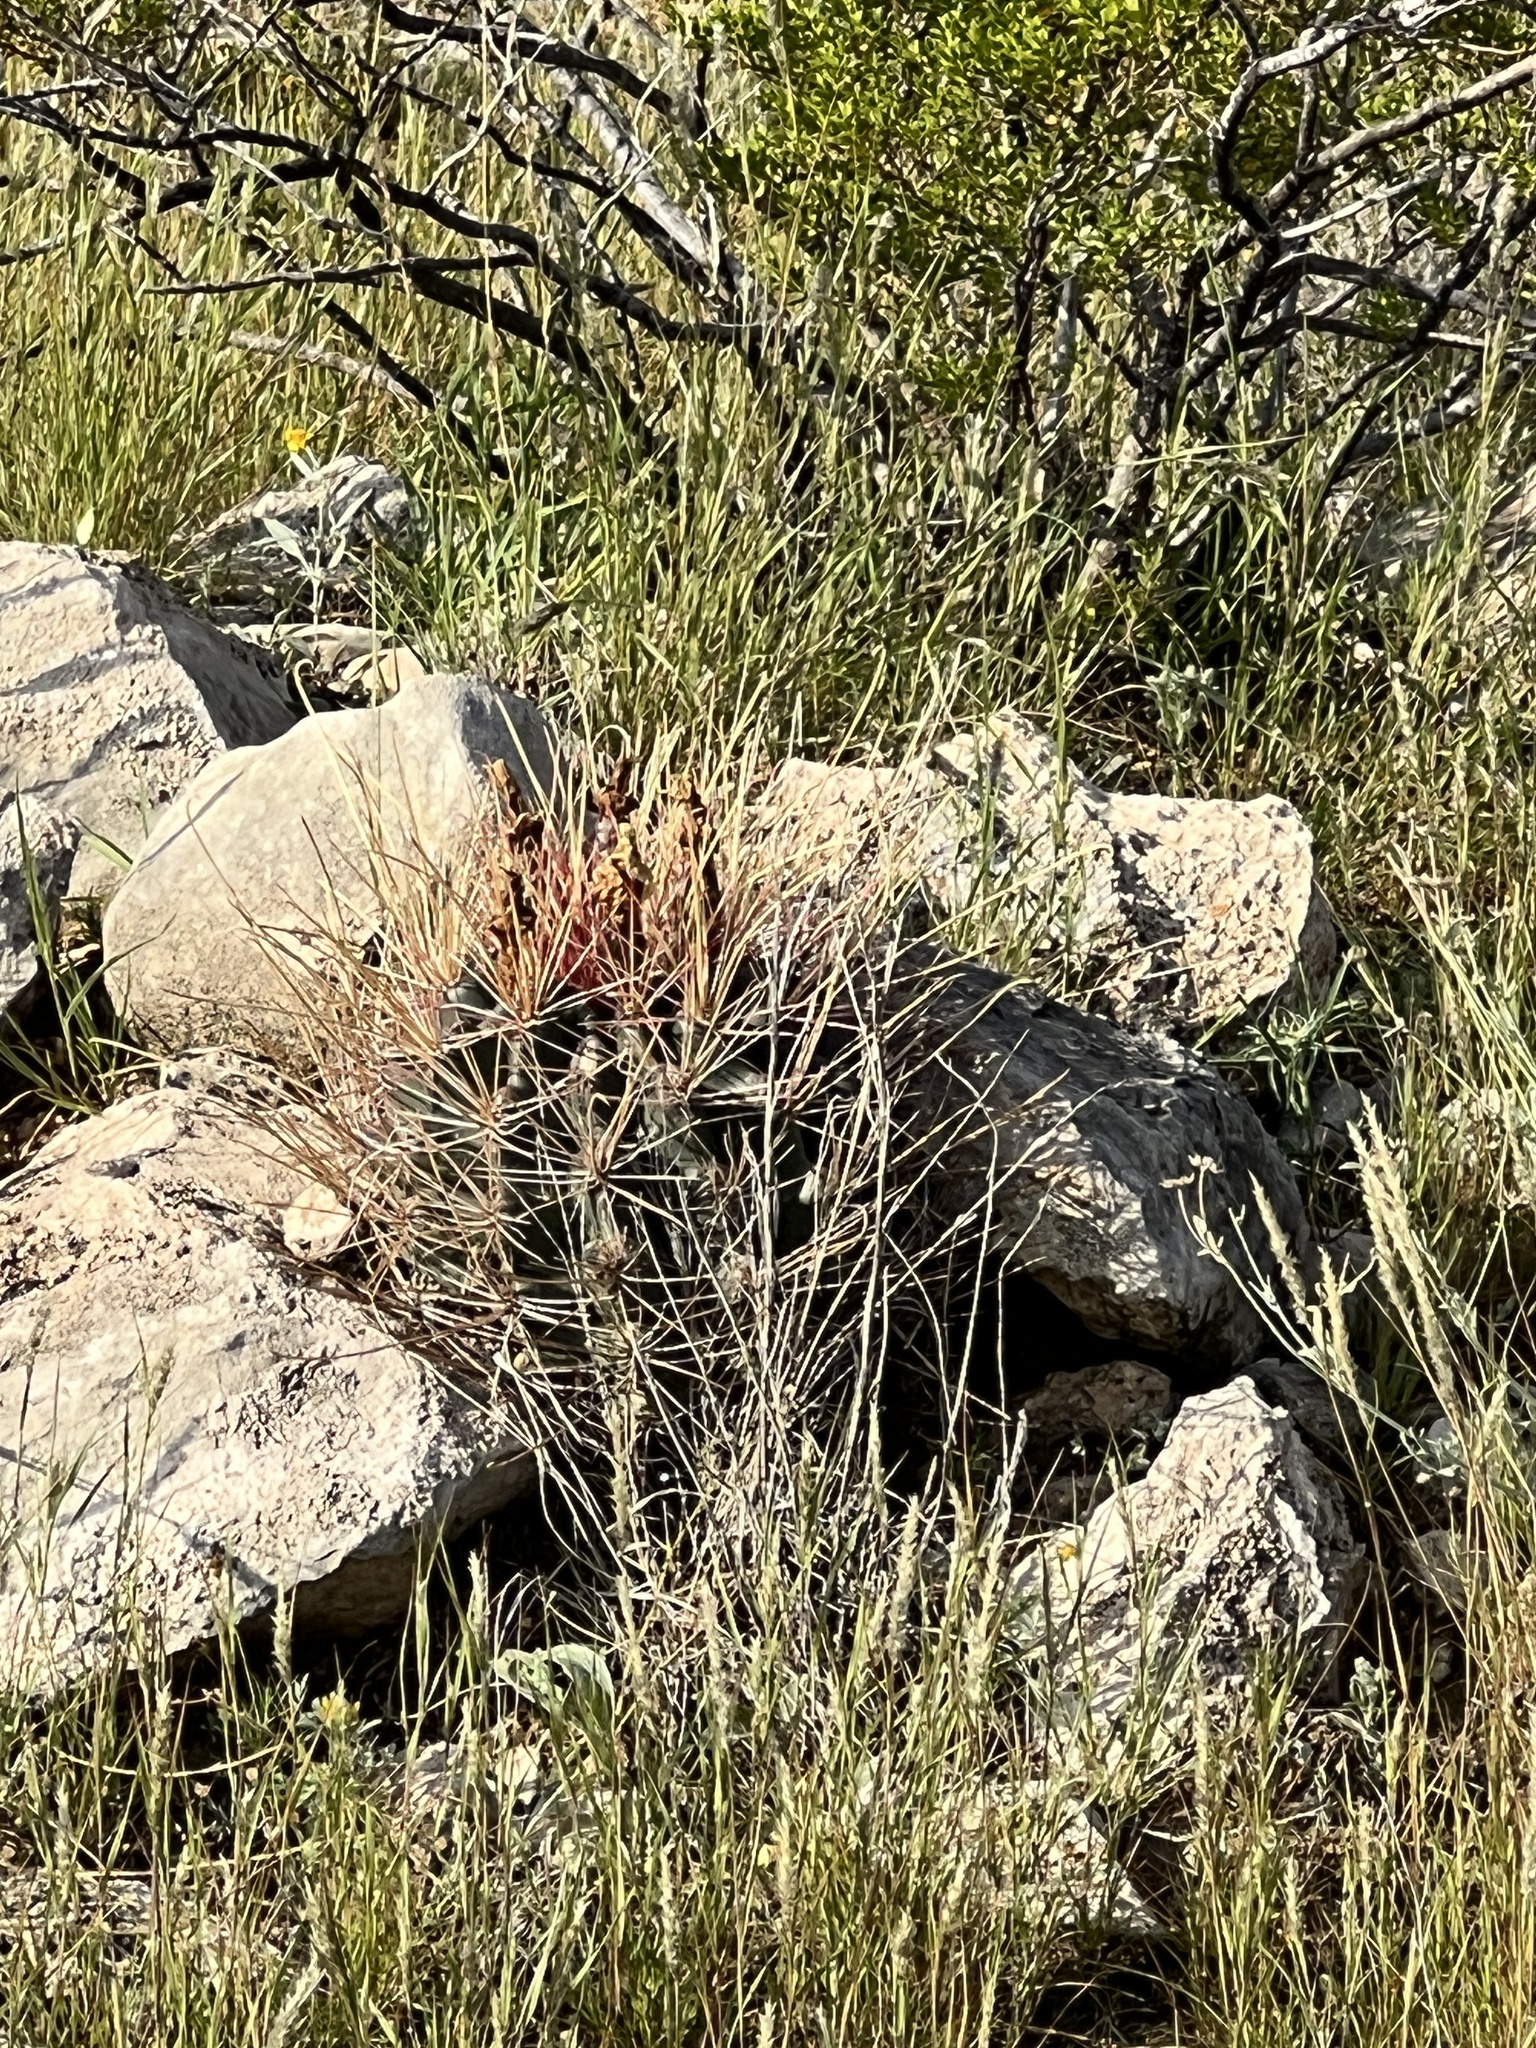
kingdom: Plantae
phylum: Tracheophyta
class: Magnoliopsida
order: Caryophyllales
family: Cactaceae
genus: Bisnaga
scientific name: Bisnaga hamatacantha
